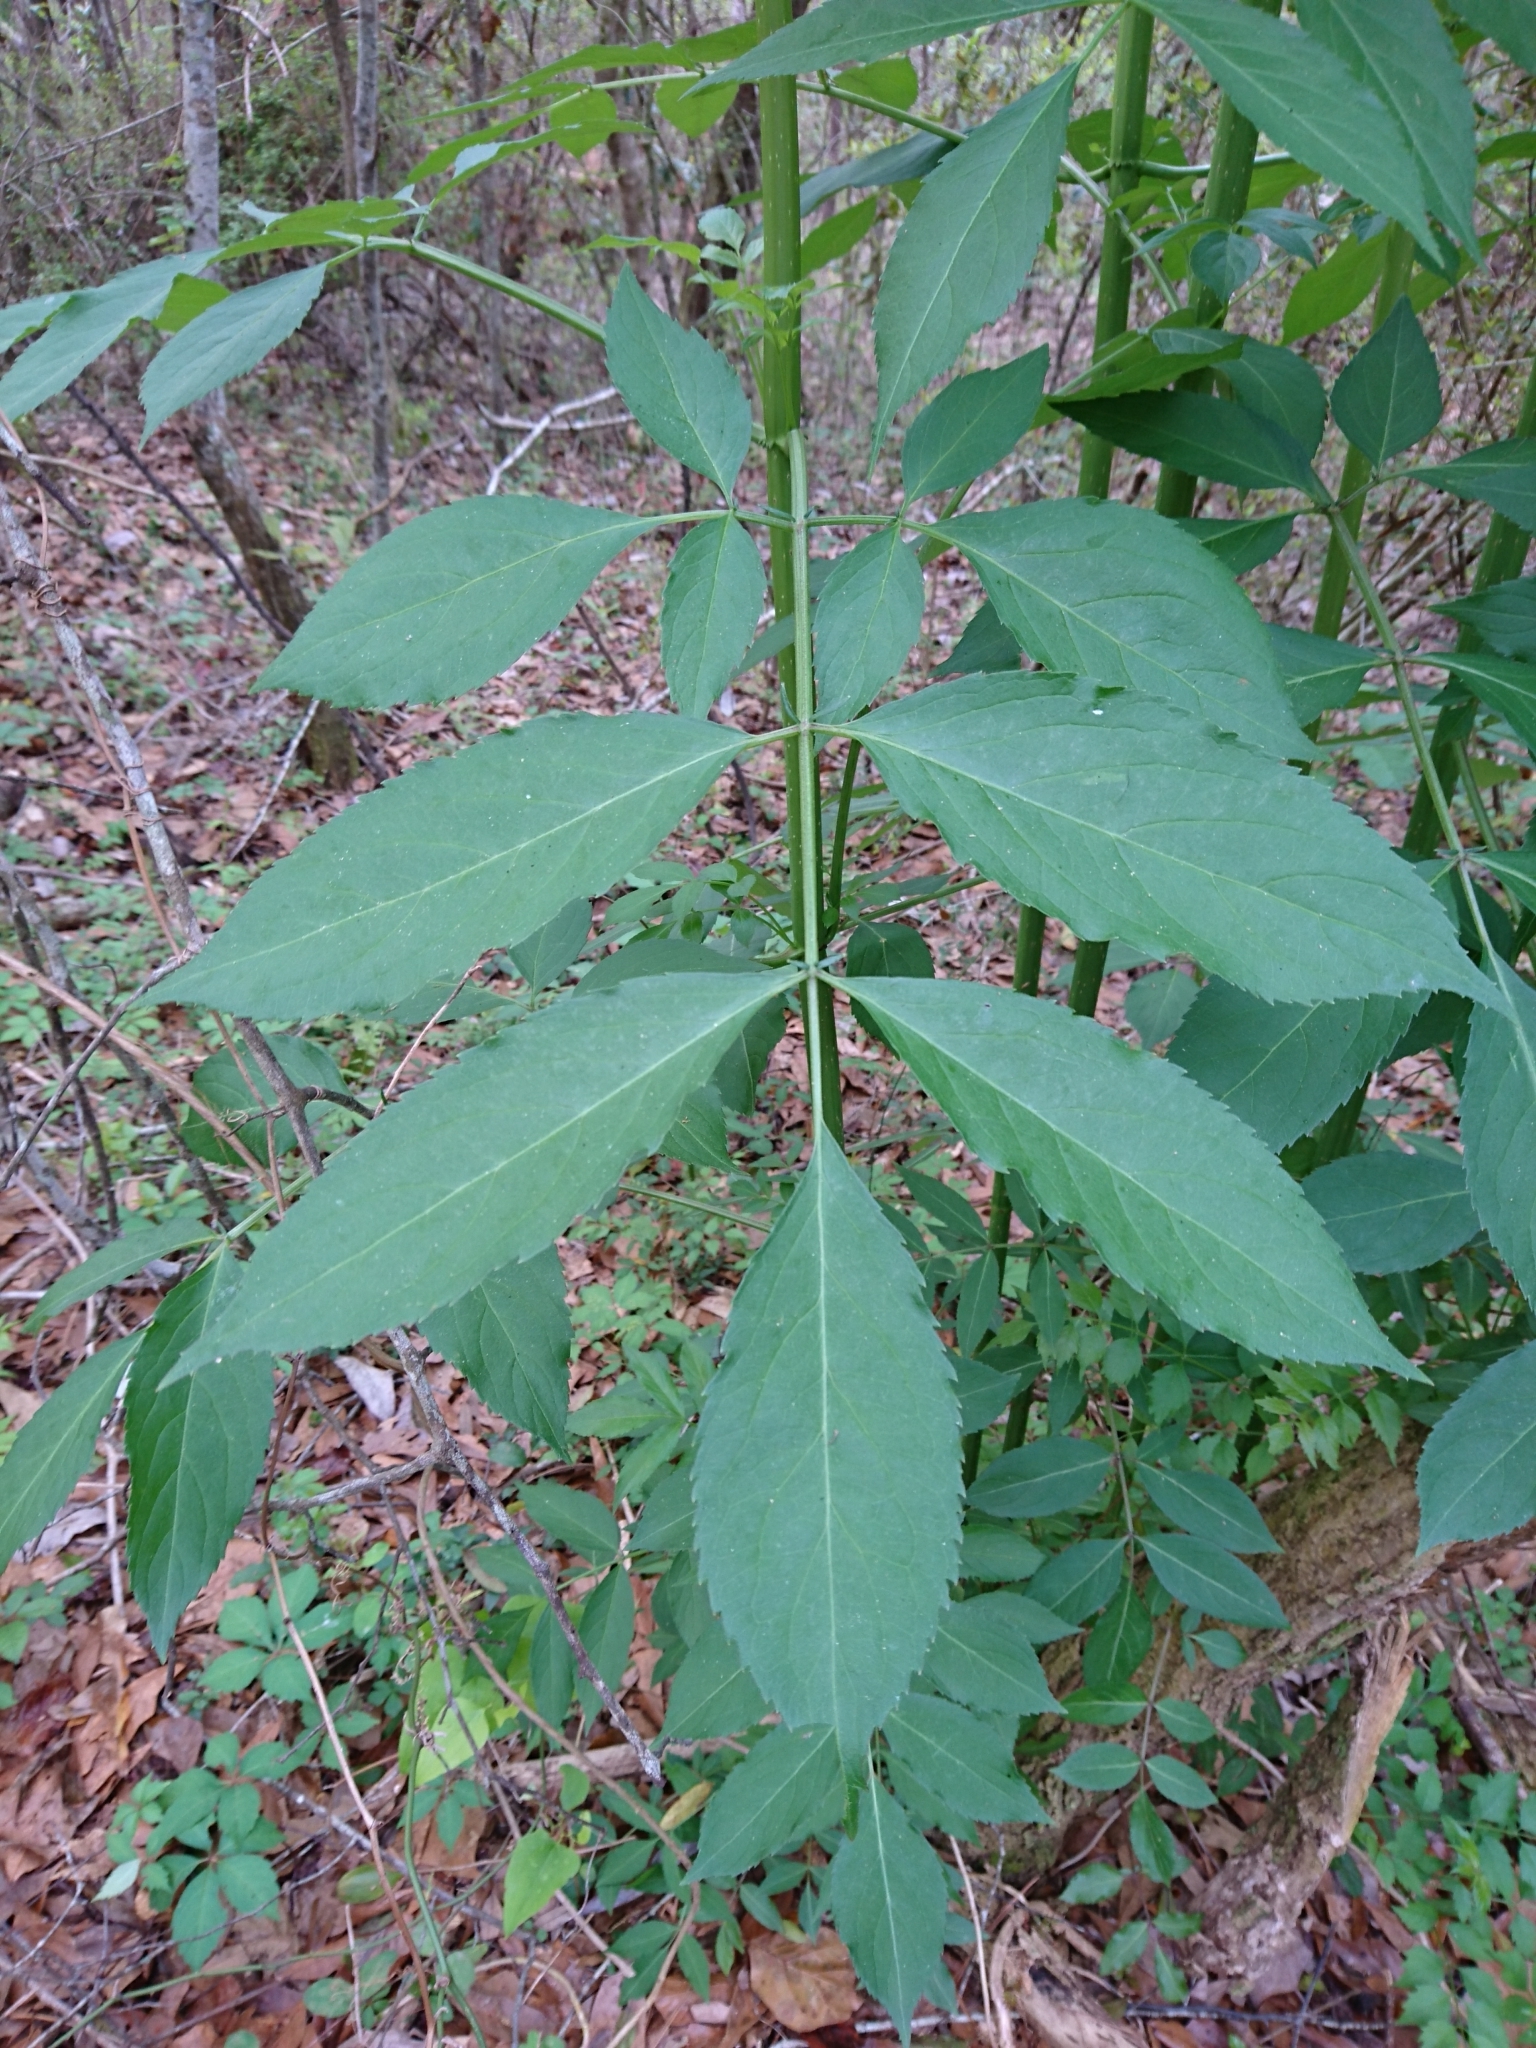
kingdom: Plantae
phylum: Tracheophyta
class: Magnoliopsida
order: Dipsacales
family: Viburnaceae
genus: Sambucus
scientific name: Sambucus canadensis
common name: American elder
